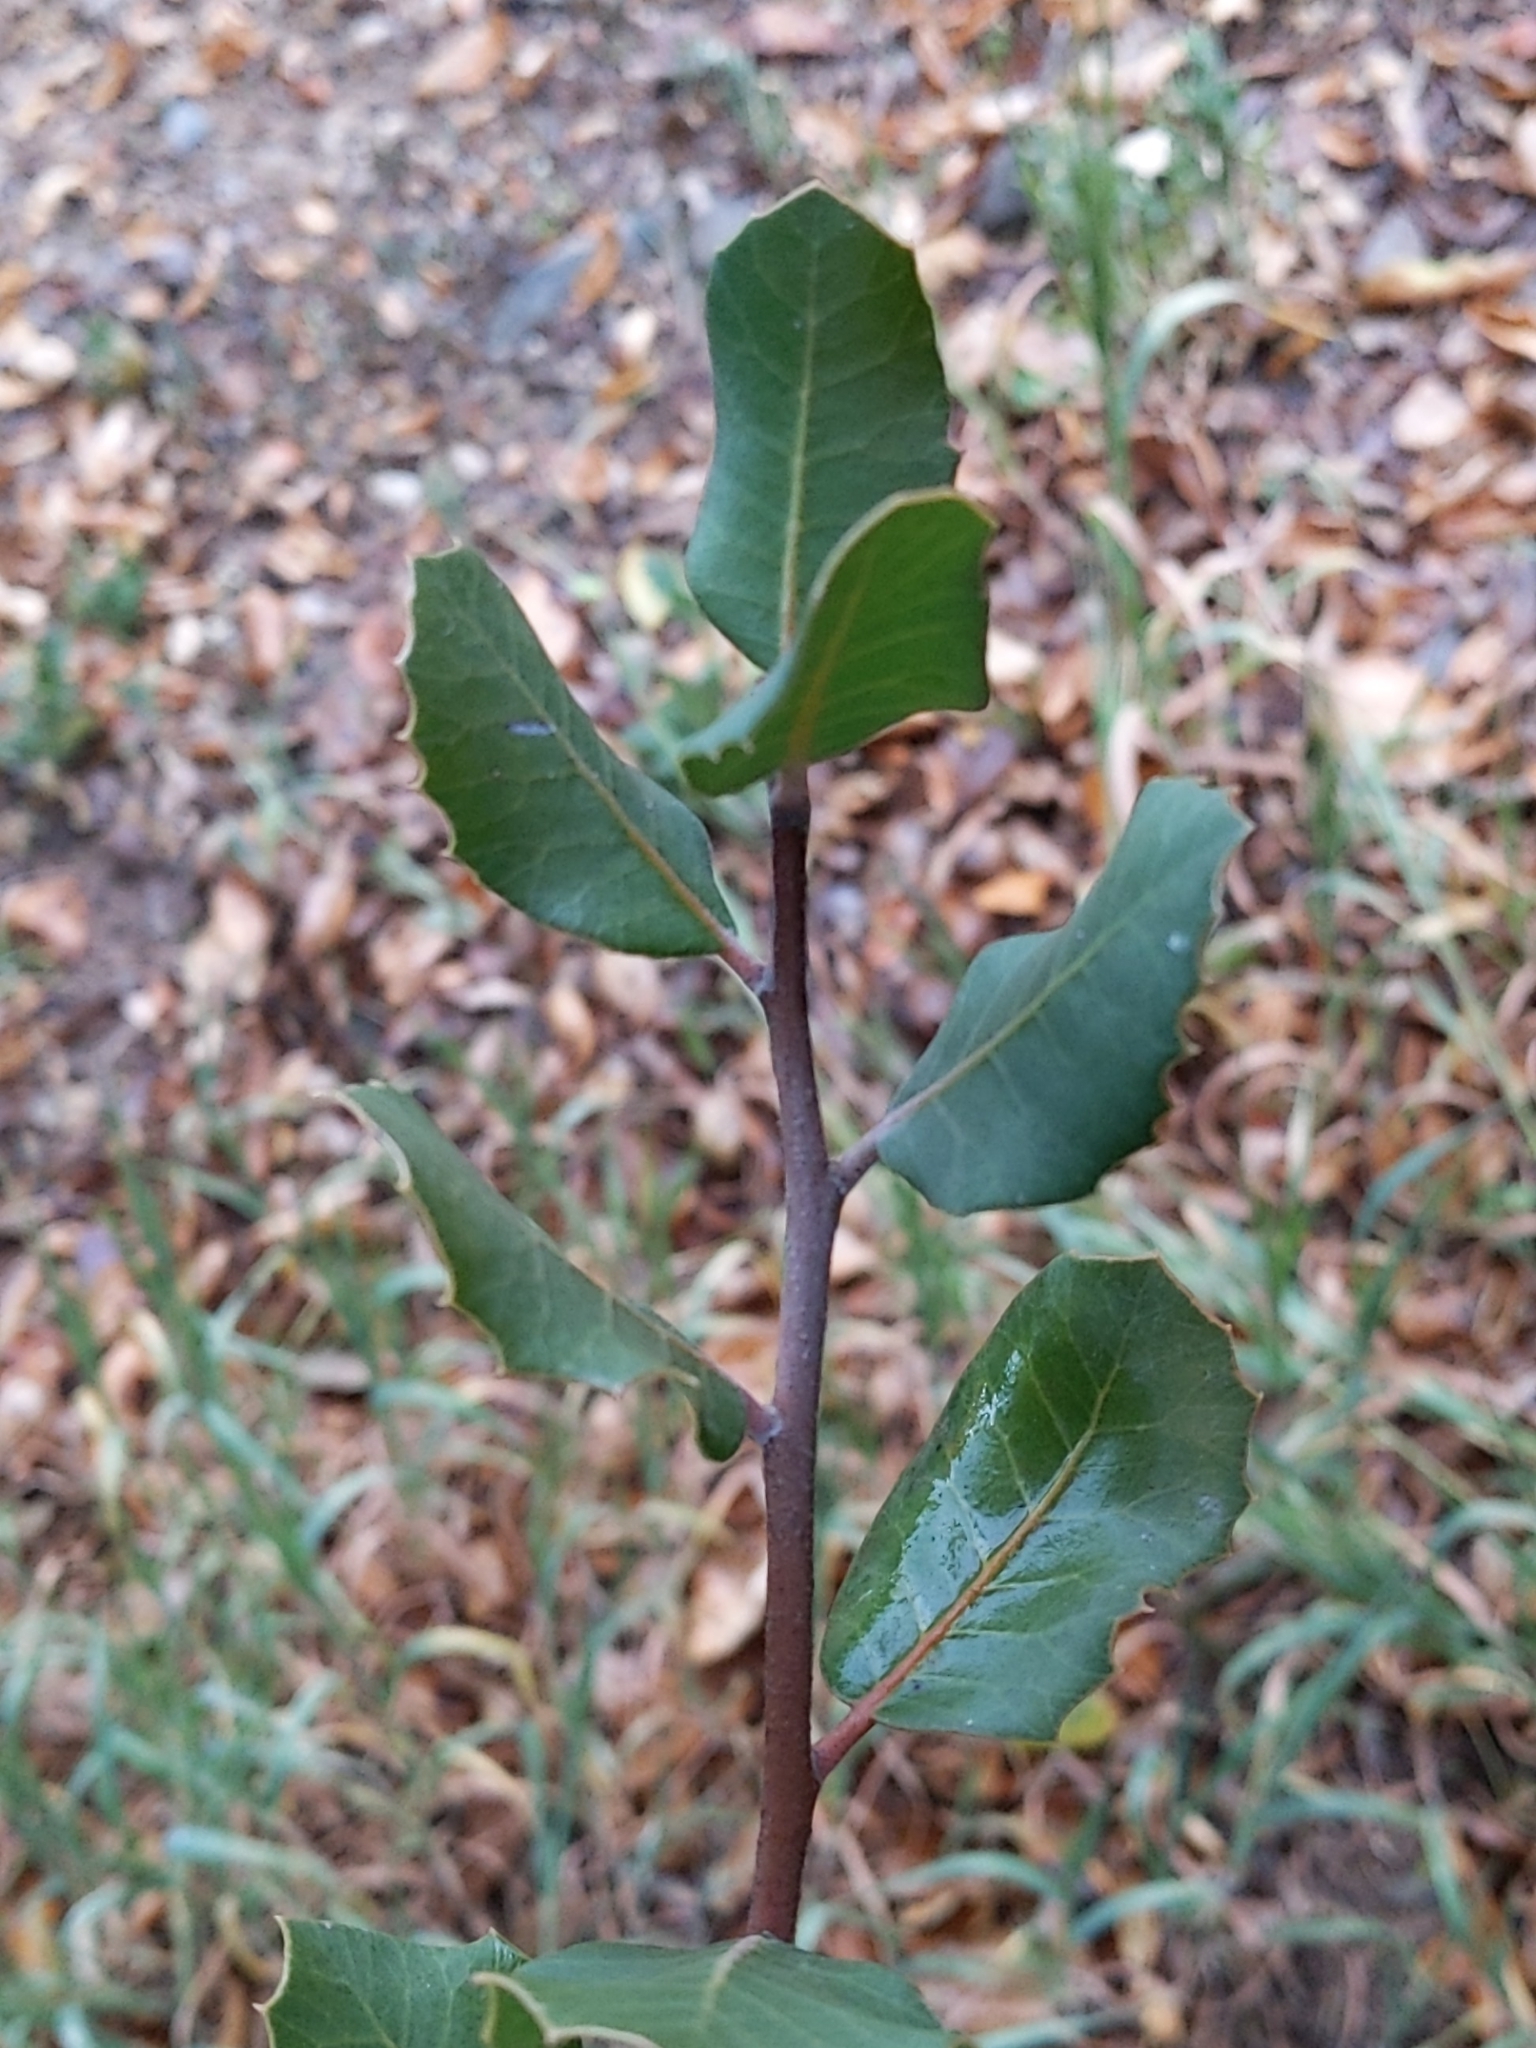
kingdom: Plantae
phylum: Tracheophyta
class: Magnoliopsida
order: Sapindales
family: Anacardiaceae
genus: Rhus
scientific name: Rhus integrifolia
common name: Lemonade sumac
